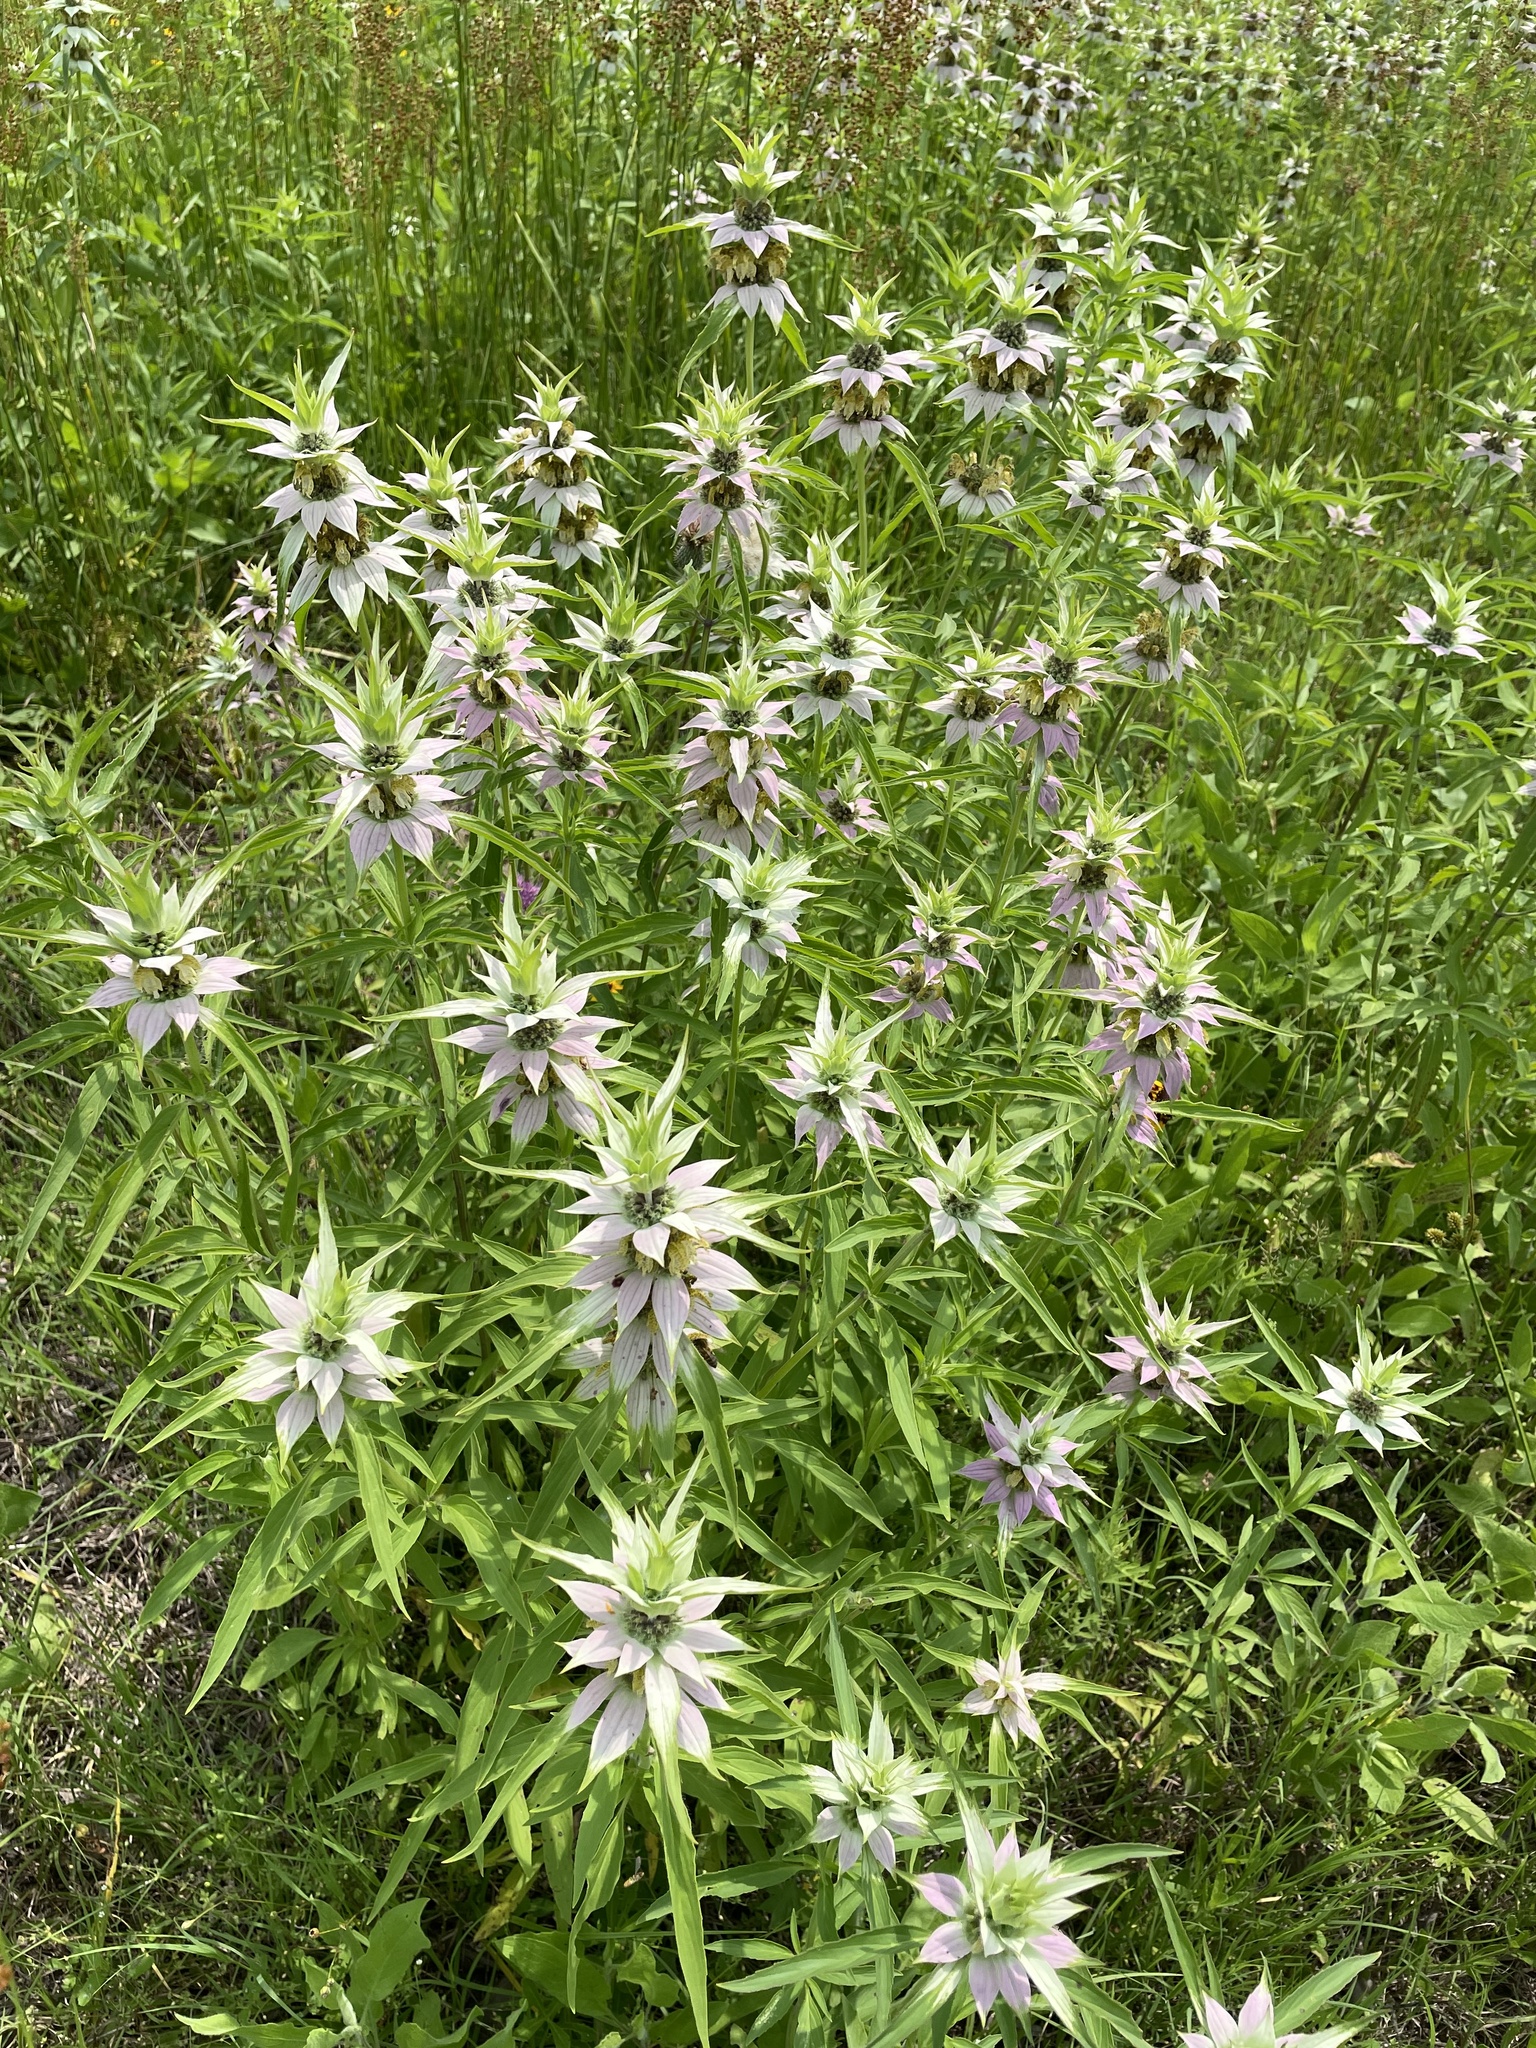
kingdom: Plantae
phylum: Tracheophyta
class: Magnoliopsida
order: Lamiales
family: Lamiaceae
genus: Monarda
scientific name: Monarda punctata
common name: Dotted monarda
